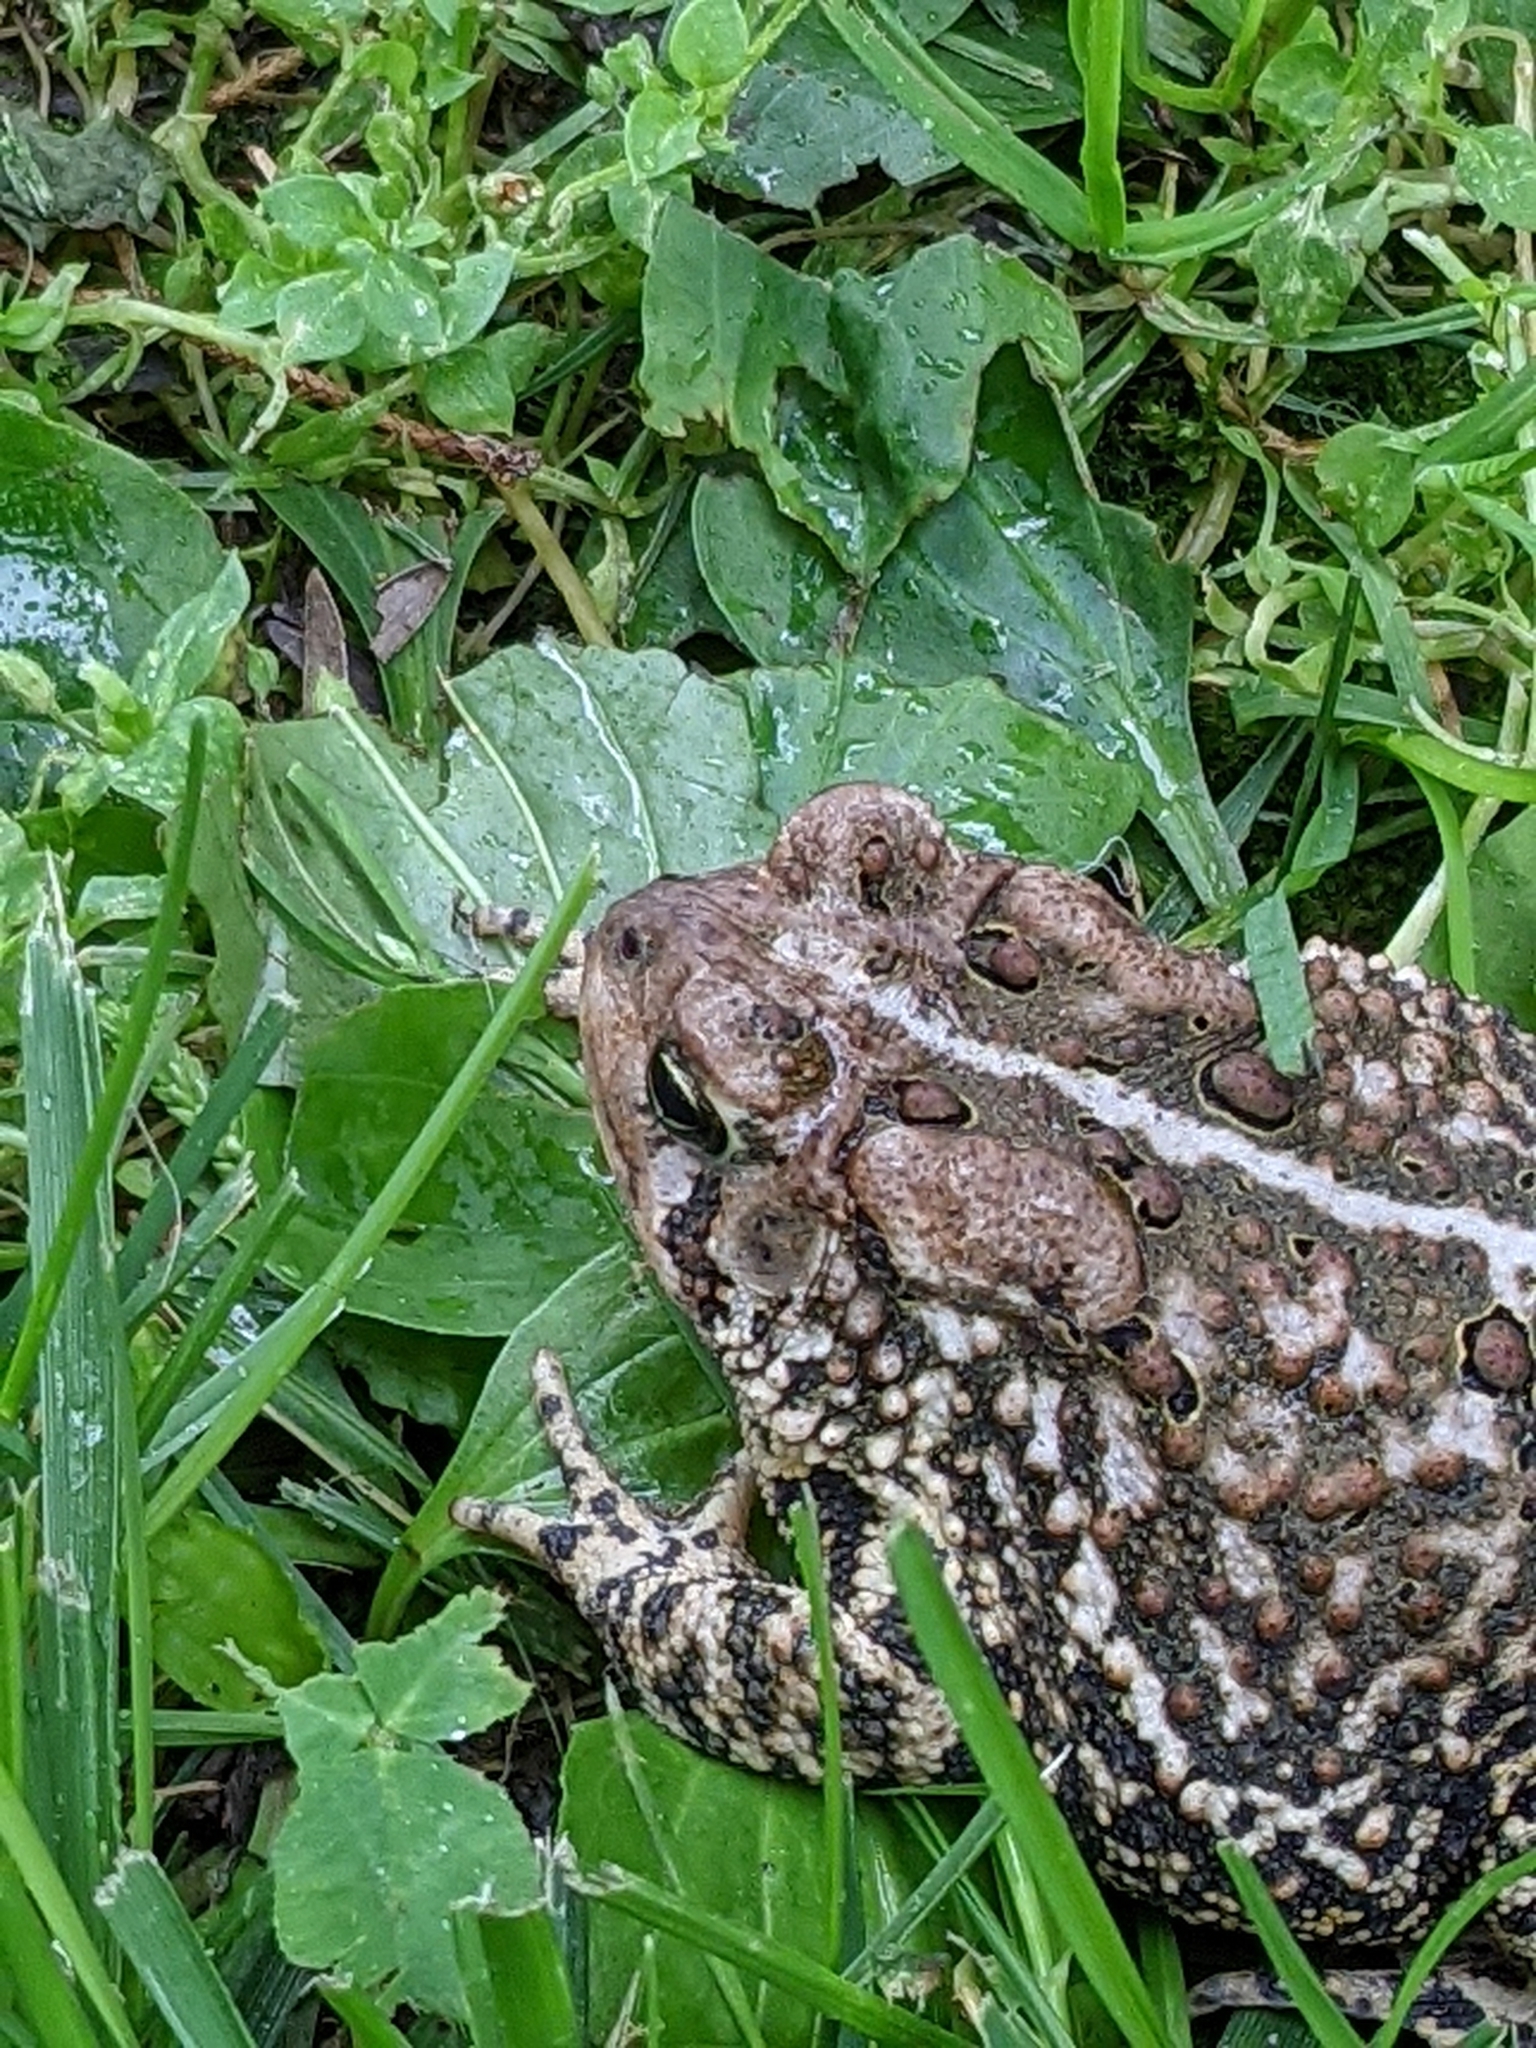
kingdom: Animalia
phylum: Chordata
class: Amphibia
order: Anura
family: Bufonidae
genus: Anaxyrus
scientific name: Anaxyrus americanus
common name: American toad
